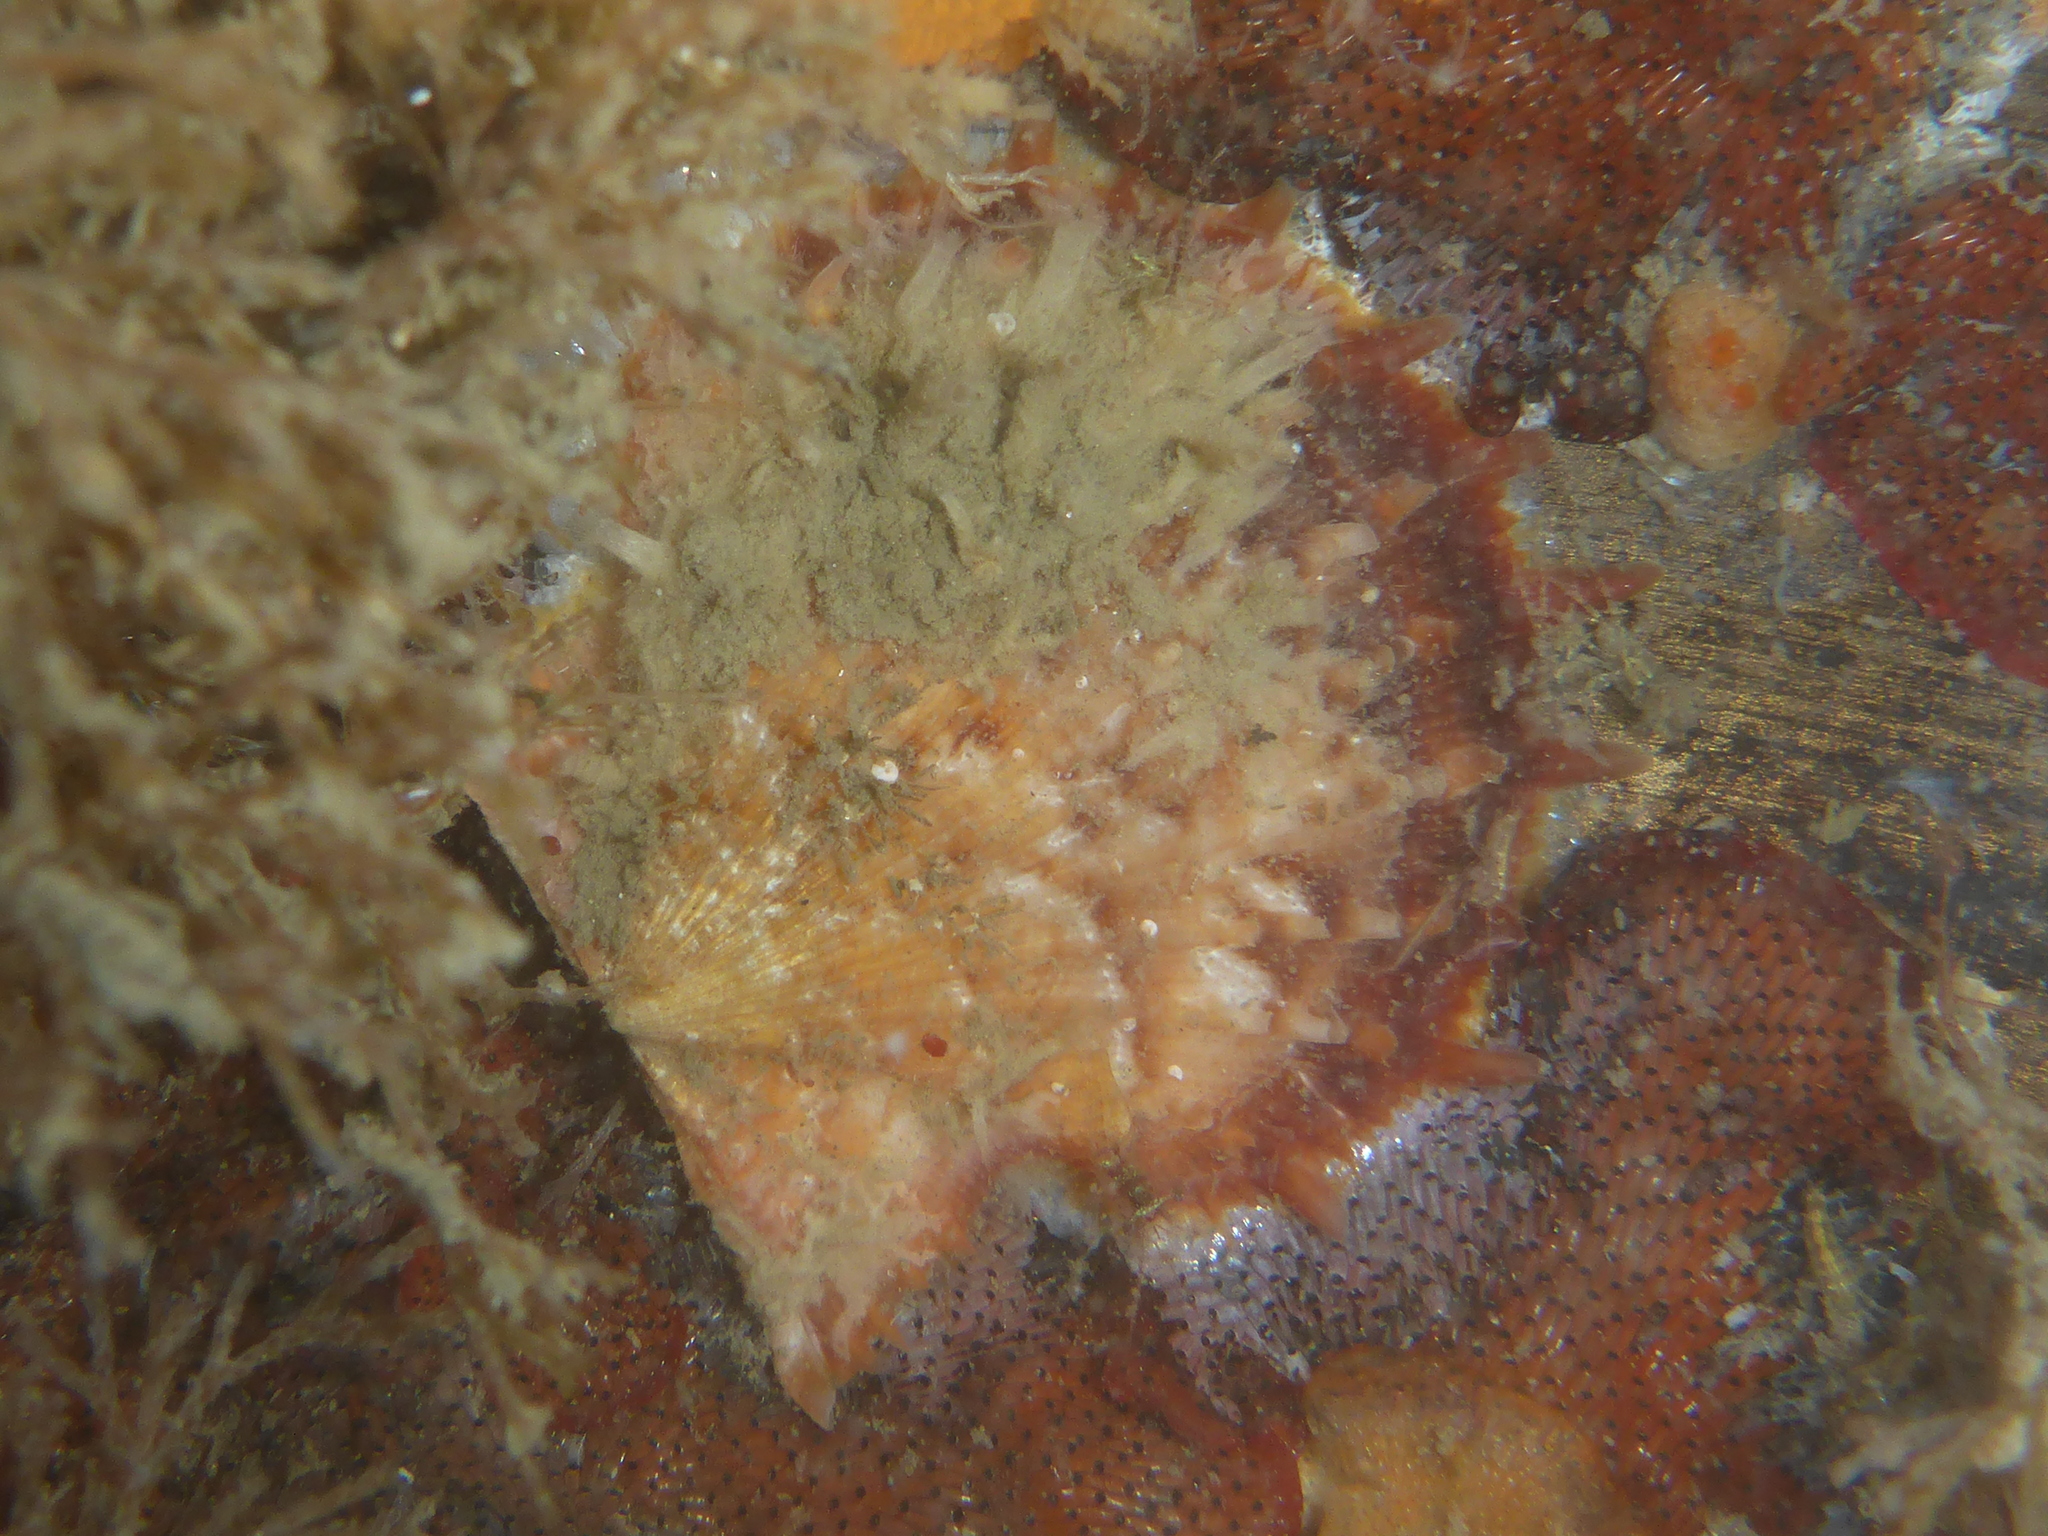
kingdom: Animalia
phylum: Mollusca
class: Bivalvia
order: Pectinida
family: Pectinidae
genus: Crassadoma
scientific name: Crassadoma gigantea
